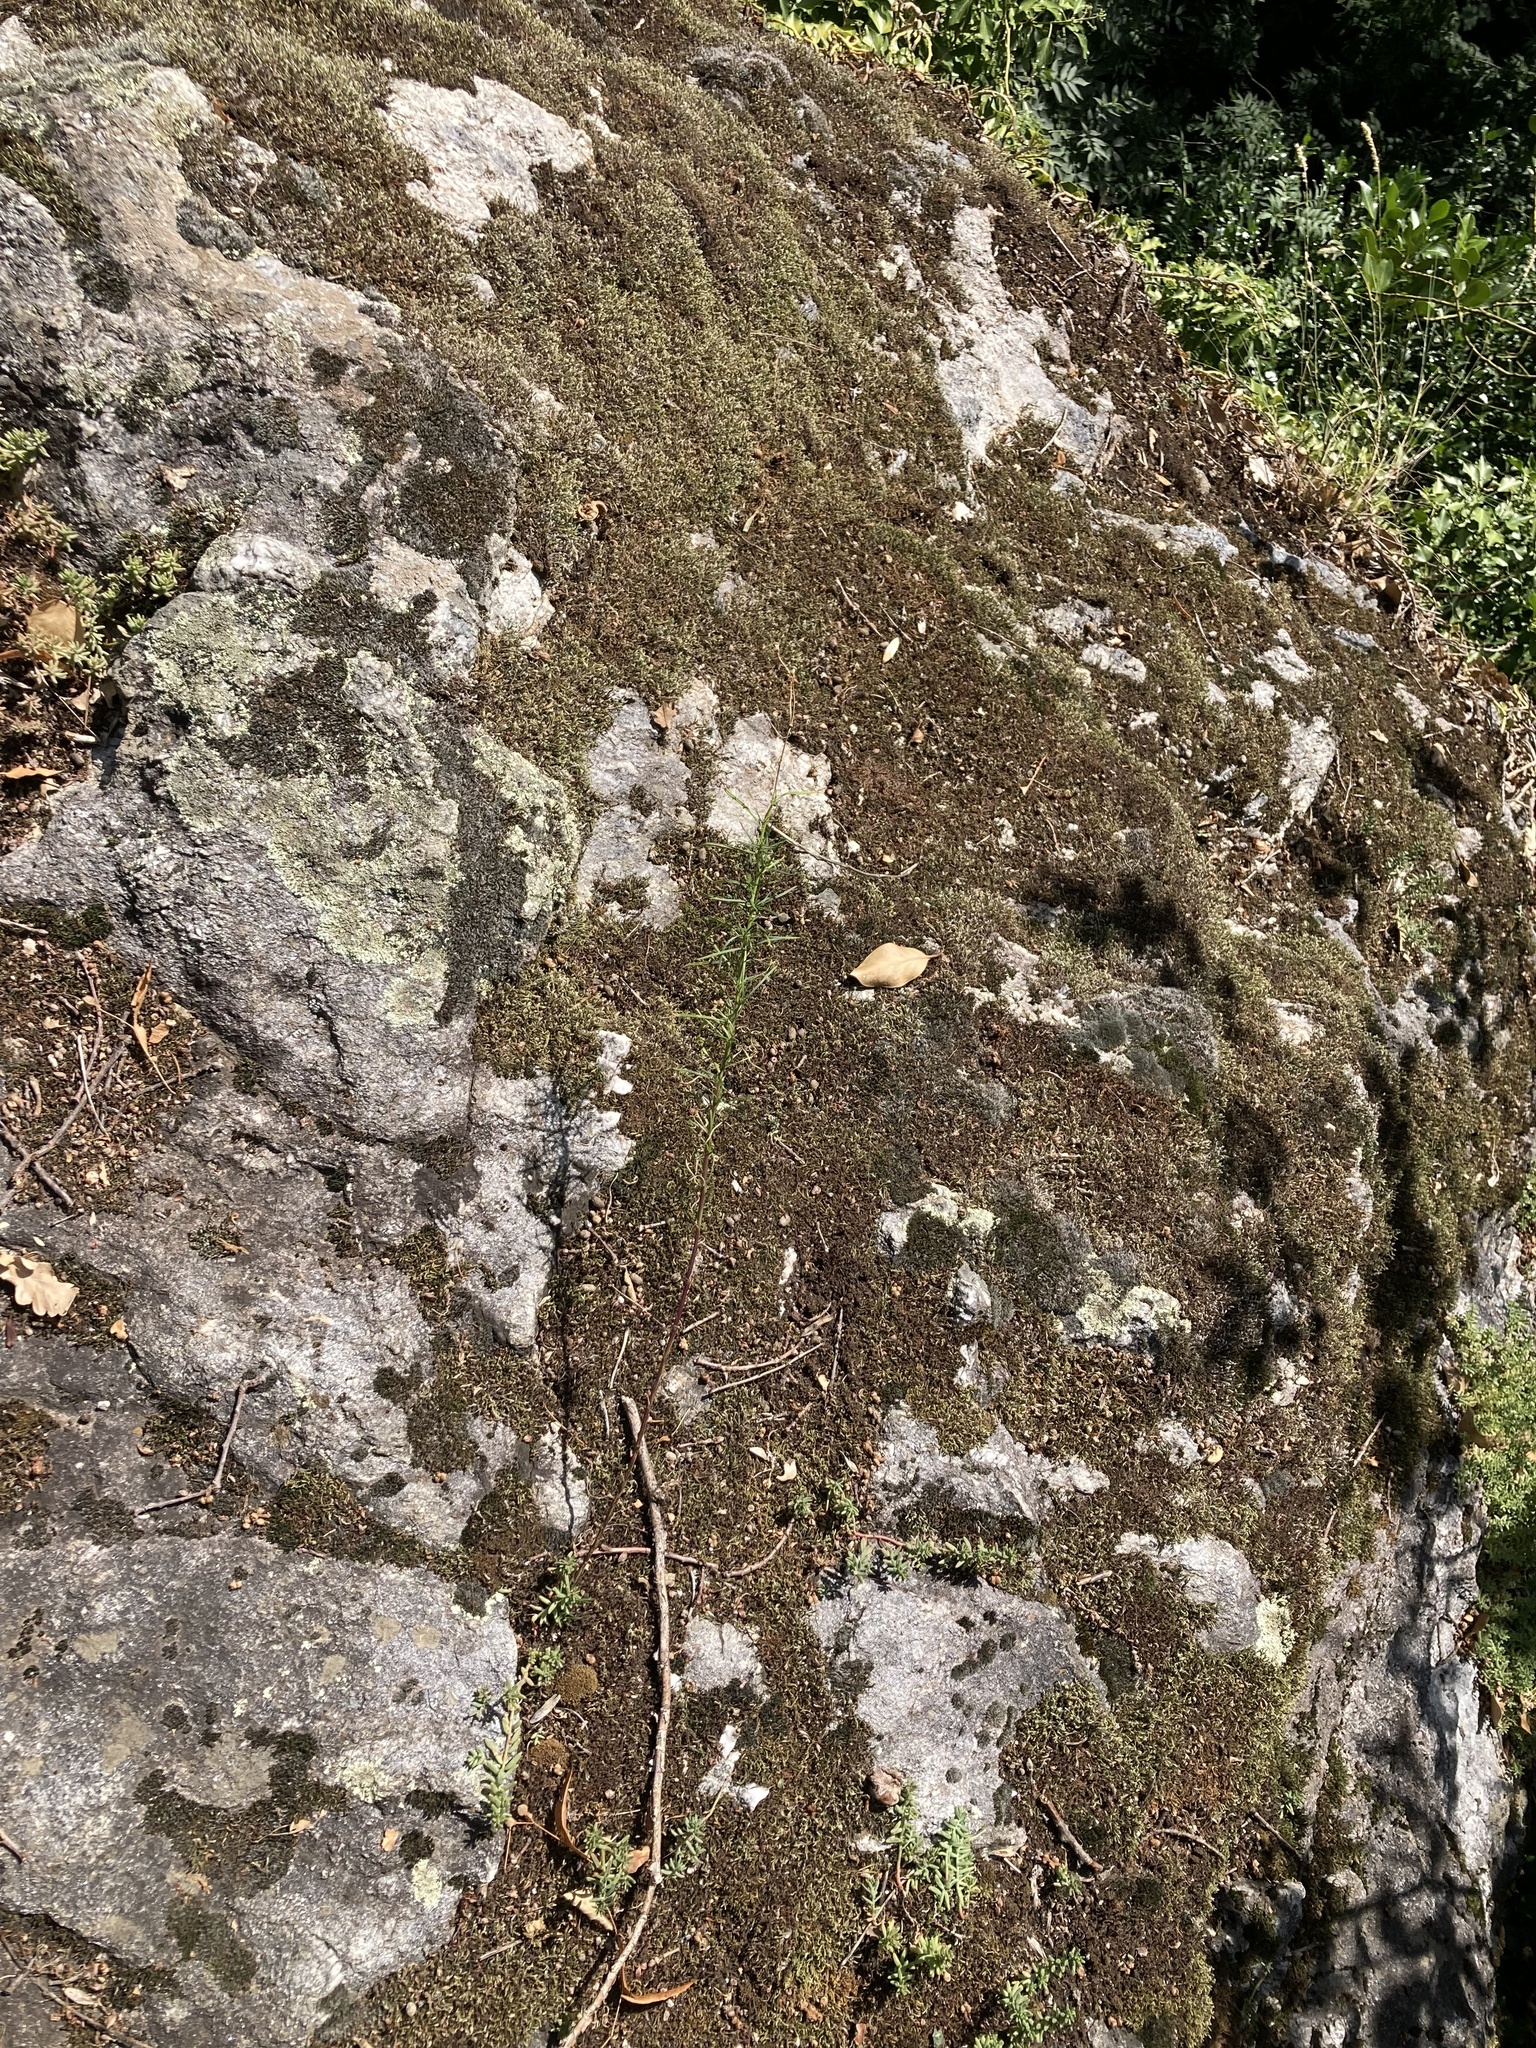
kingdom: Plantae
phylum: Tracheophyta
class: Magnoliopsida
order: Asterales
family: Asteraceae
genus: Senecio
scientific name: Senecio inaequidens
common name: Narrow-leaved ragwort
